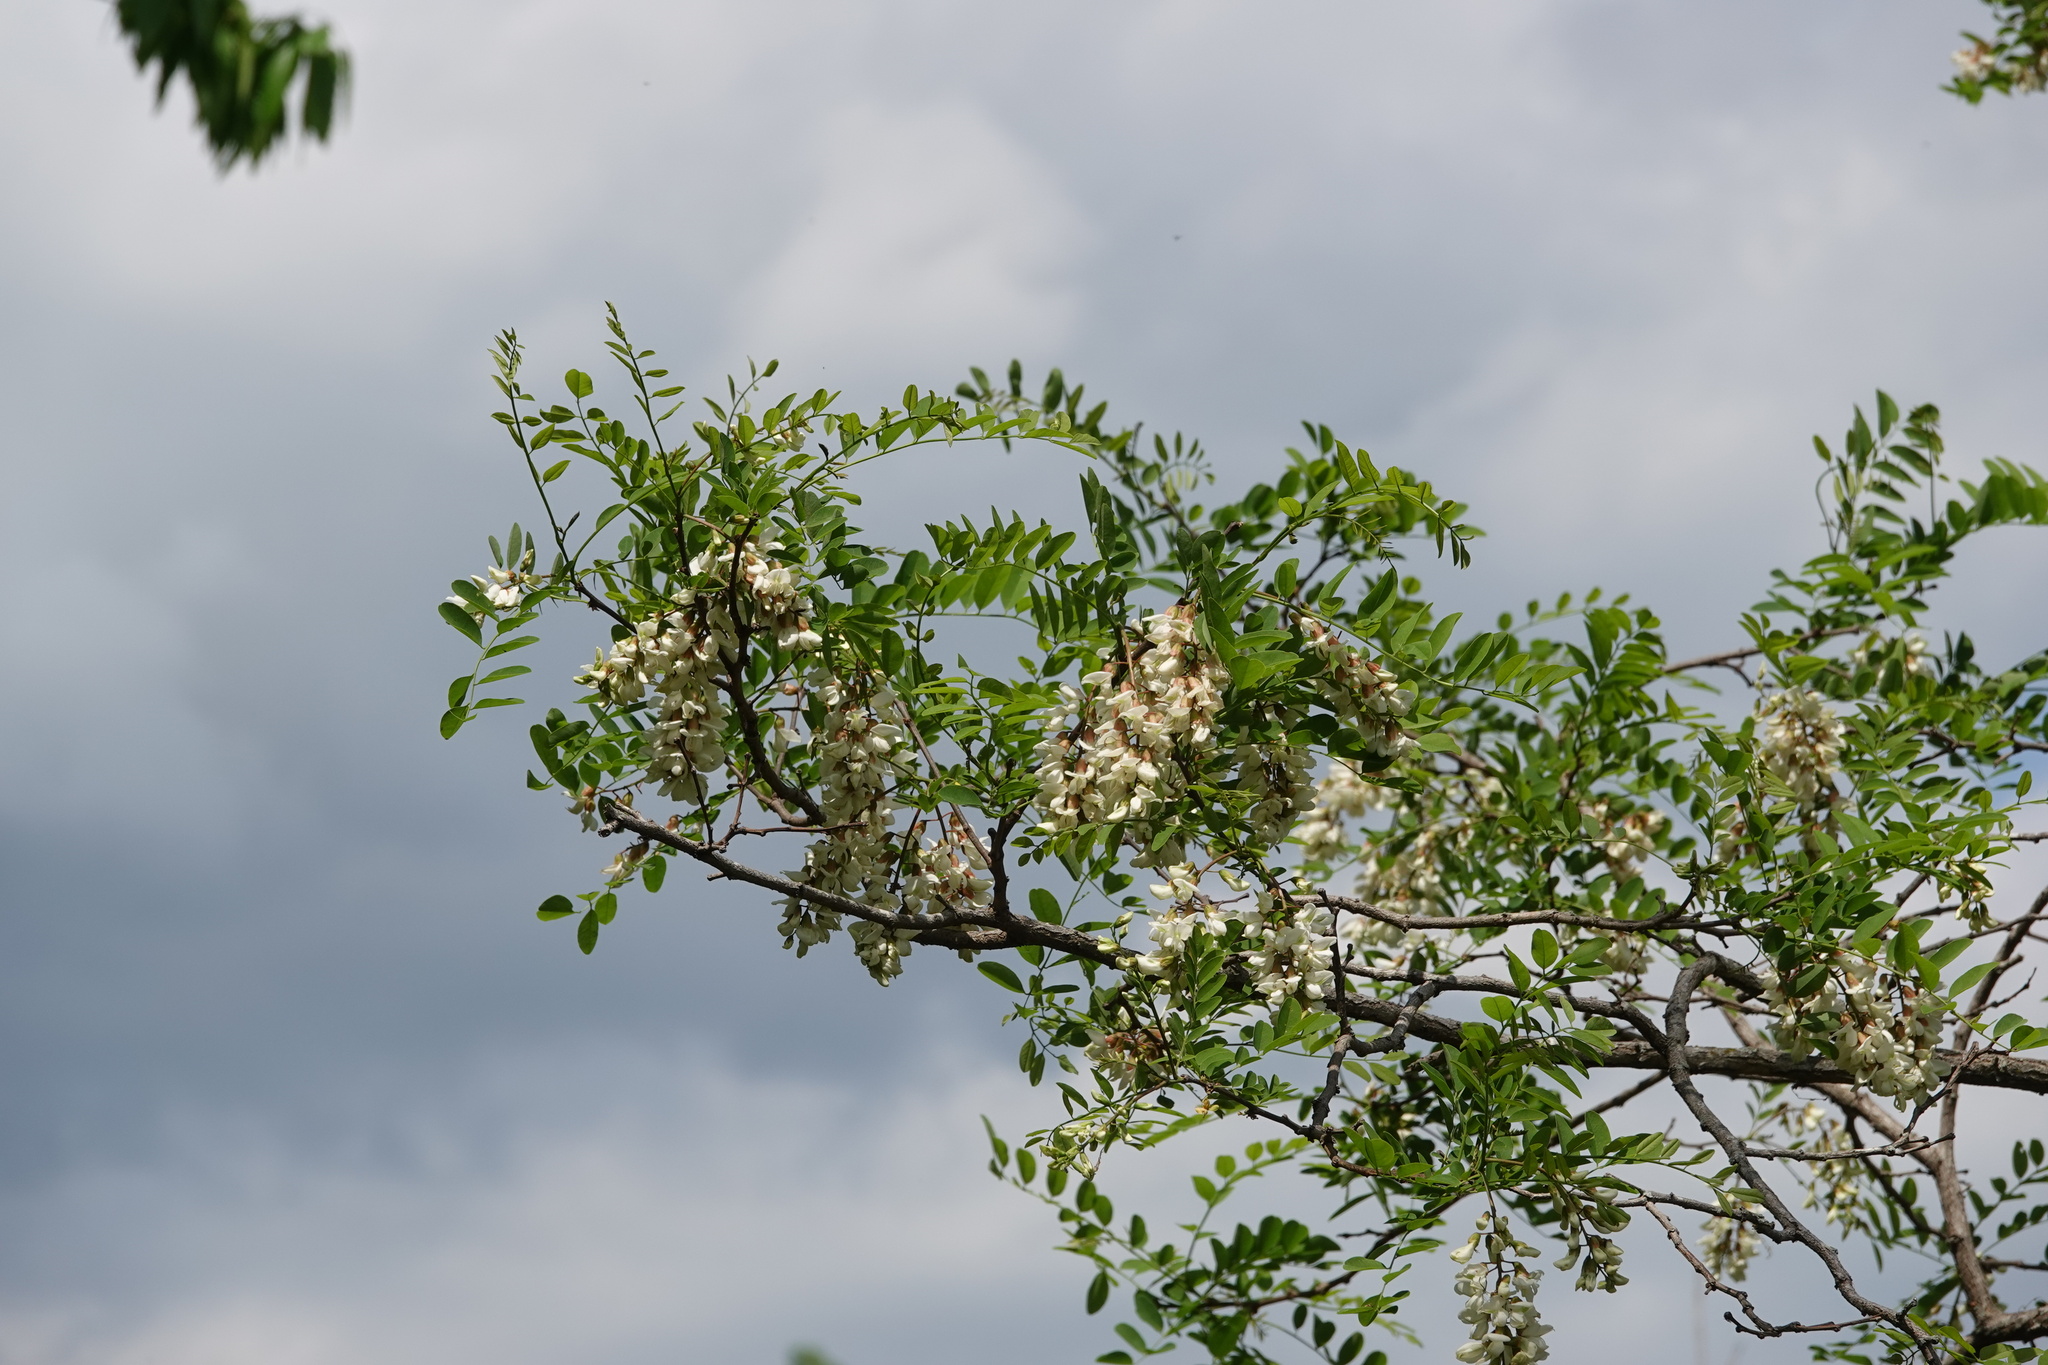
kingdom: Plantae
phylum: Tracheophyta
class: Magnoliopsida
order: Fabales
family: Fabaceae
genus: Robinia
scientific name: Robinia pseudoacacia
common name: Black locust
